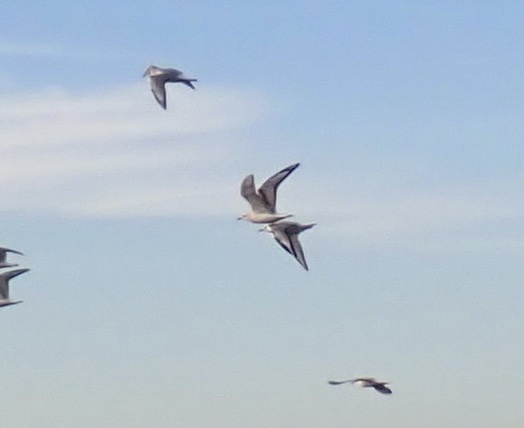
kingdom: Animalia
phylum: Chordata
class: Aves
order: Charadriiformes
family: Laridae
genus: Chroicocephalus
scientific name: Chroicocephalus philadelphia
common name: Bonaparte's gull
